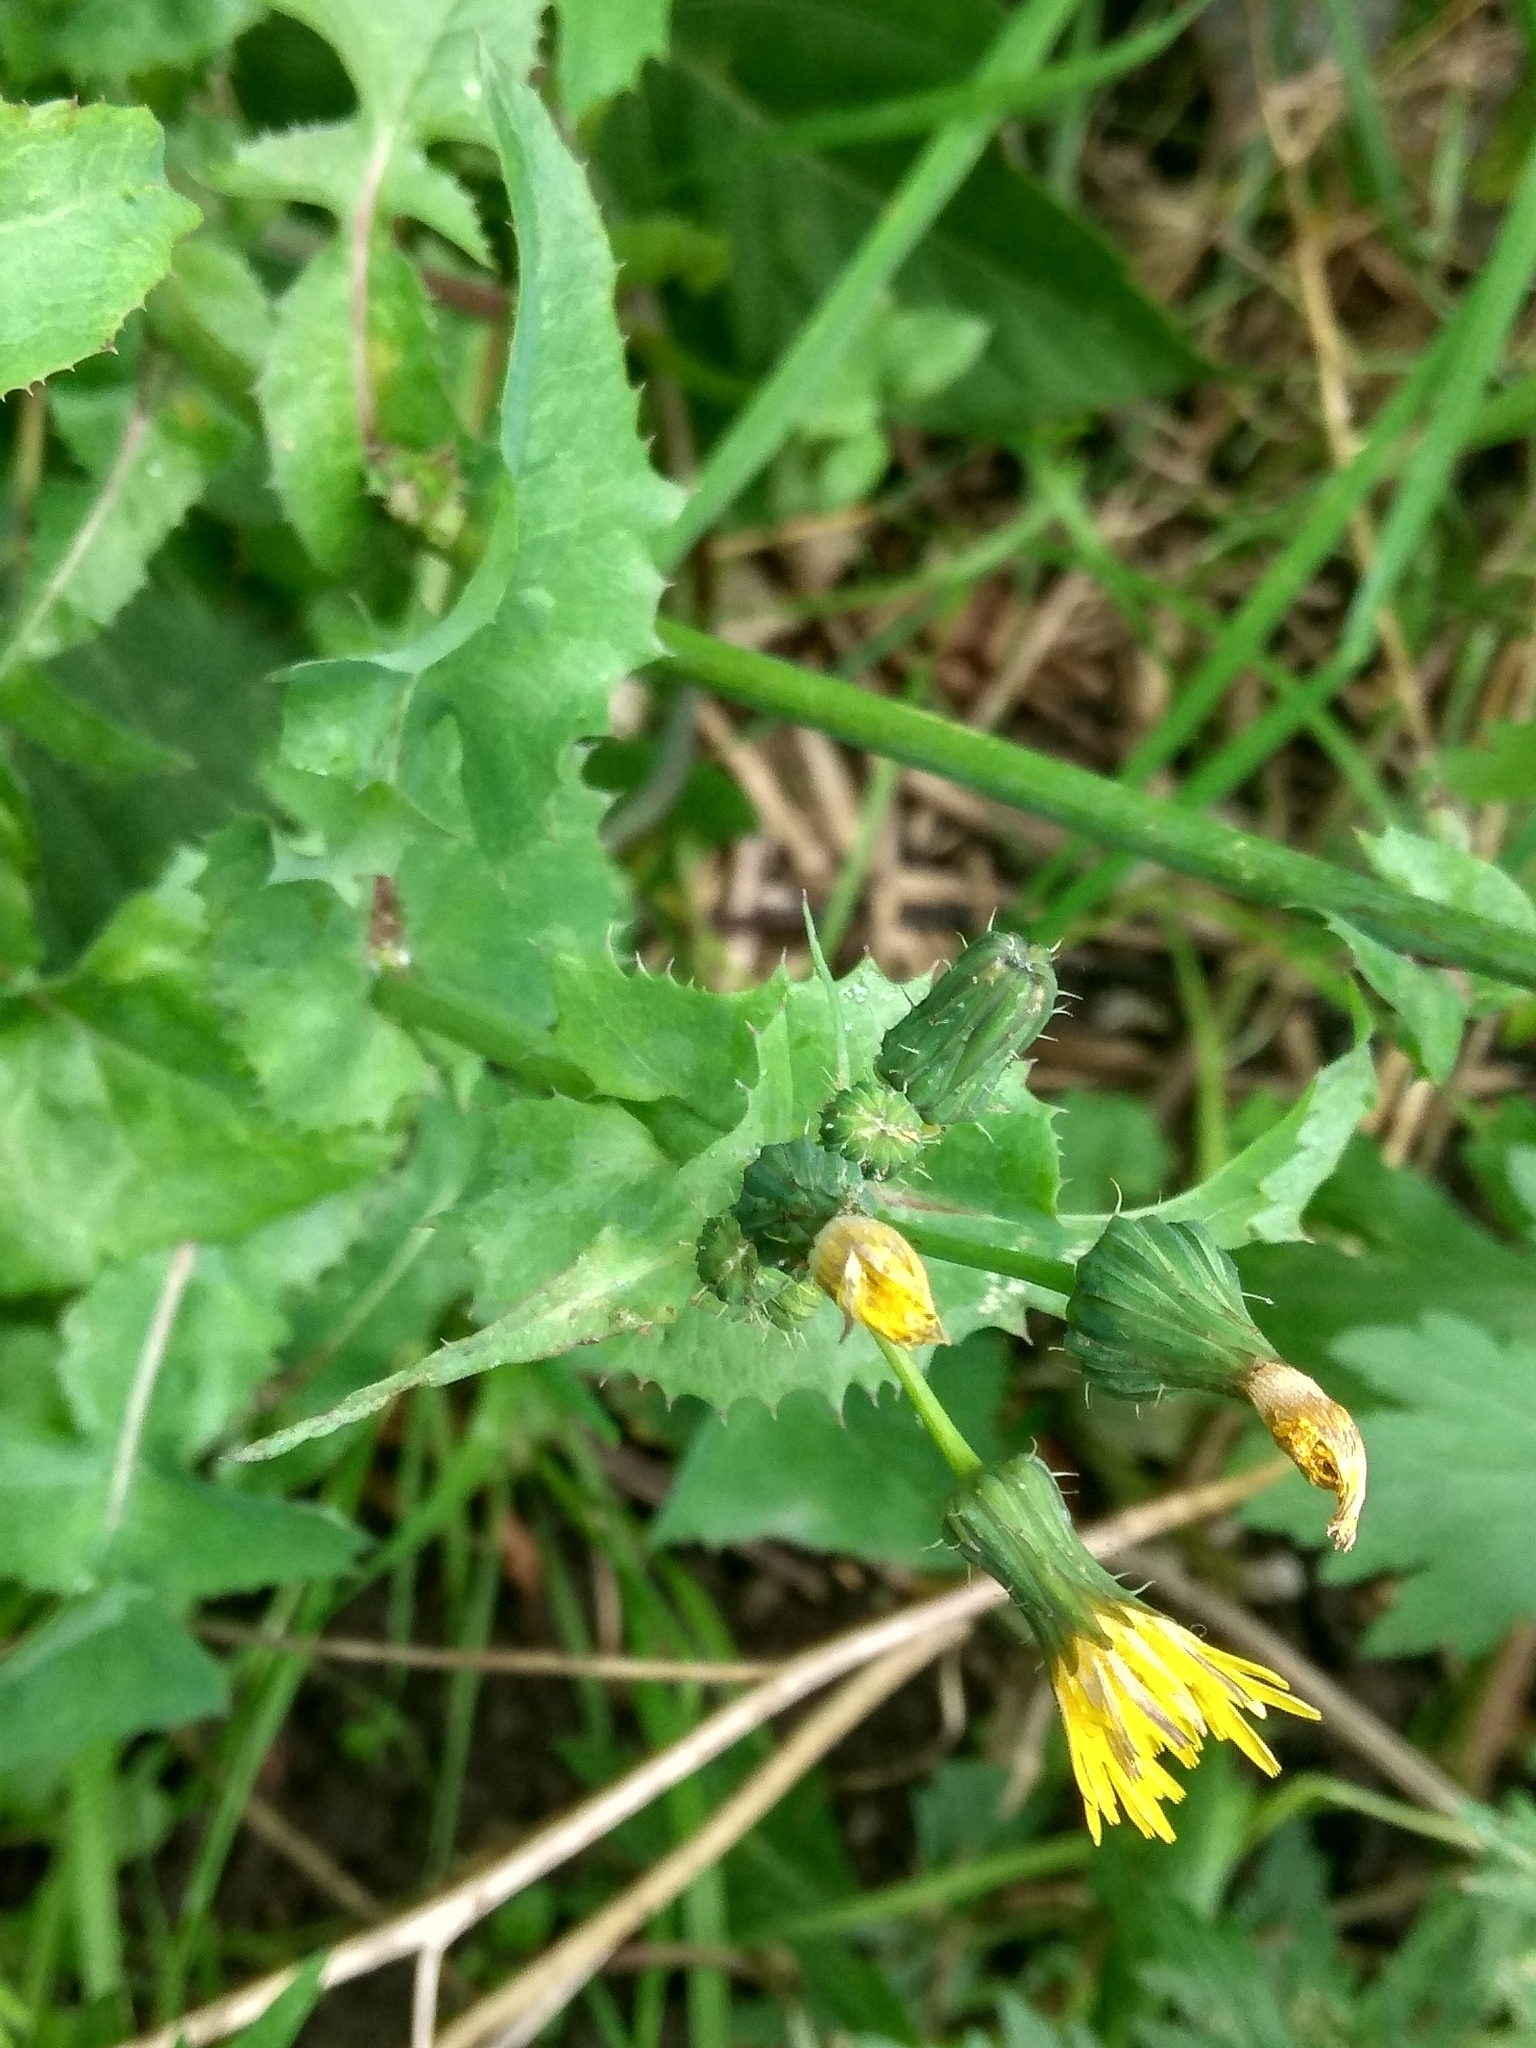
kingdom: Plantae
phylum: Tracheophyta
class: Magnoliopsida
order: Asterales
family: Asteraceae
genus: Sonchus
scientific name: Sonchus oleraceus
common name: Common sowthistle
